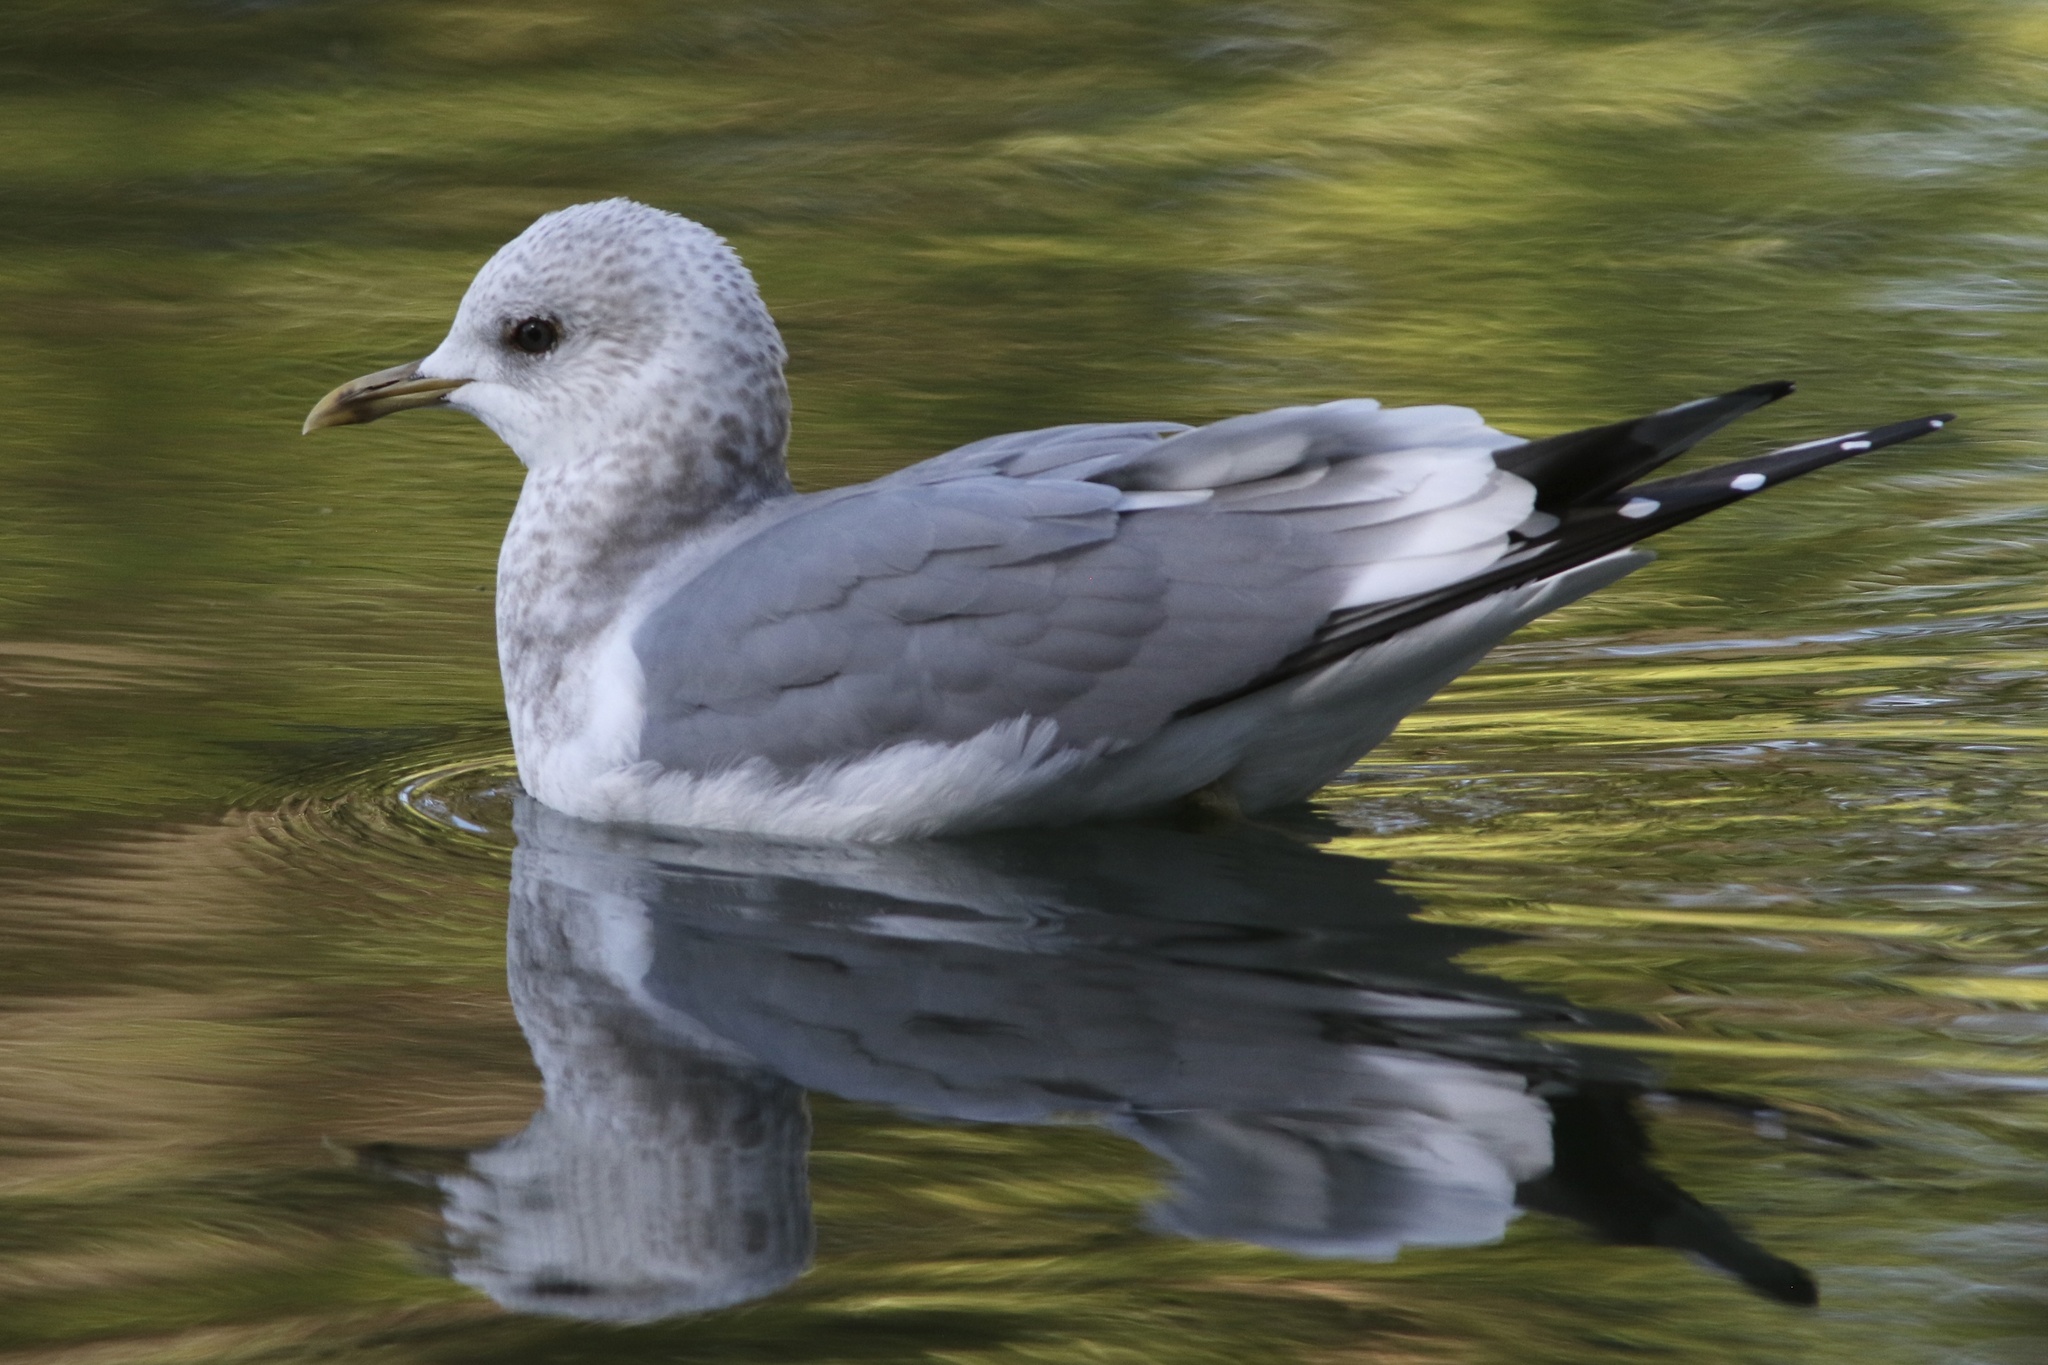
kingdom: Animalia
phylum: Chordata
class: Aves
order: Charadriiformes
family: Laridae
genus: Larus
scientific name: Larus brachyrhynchus
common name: Short-billed gull
